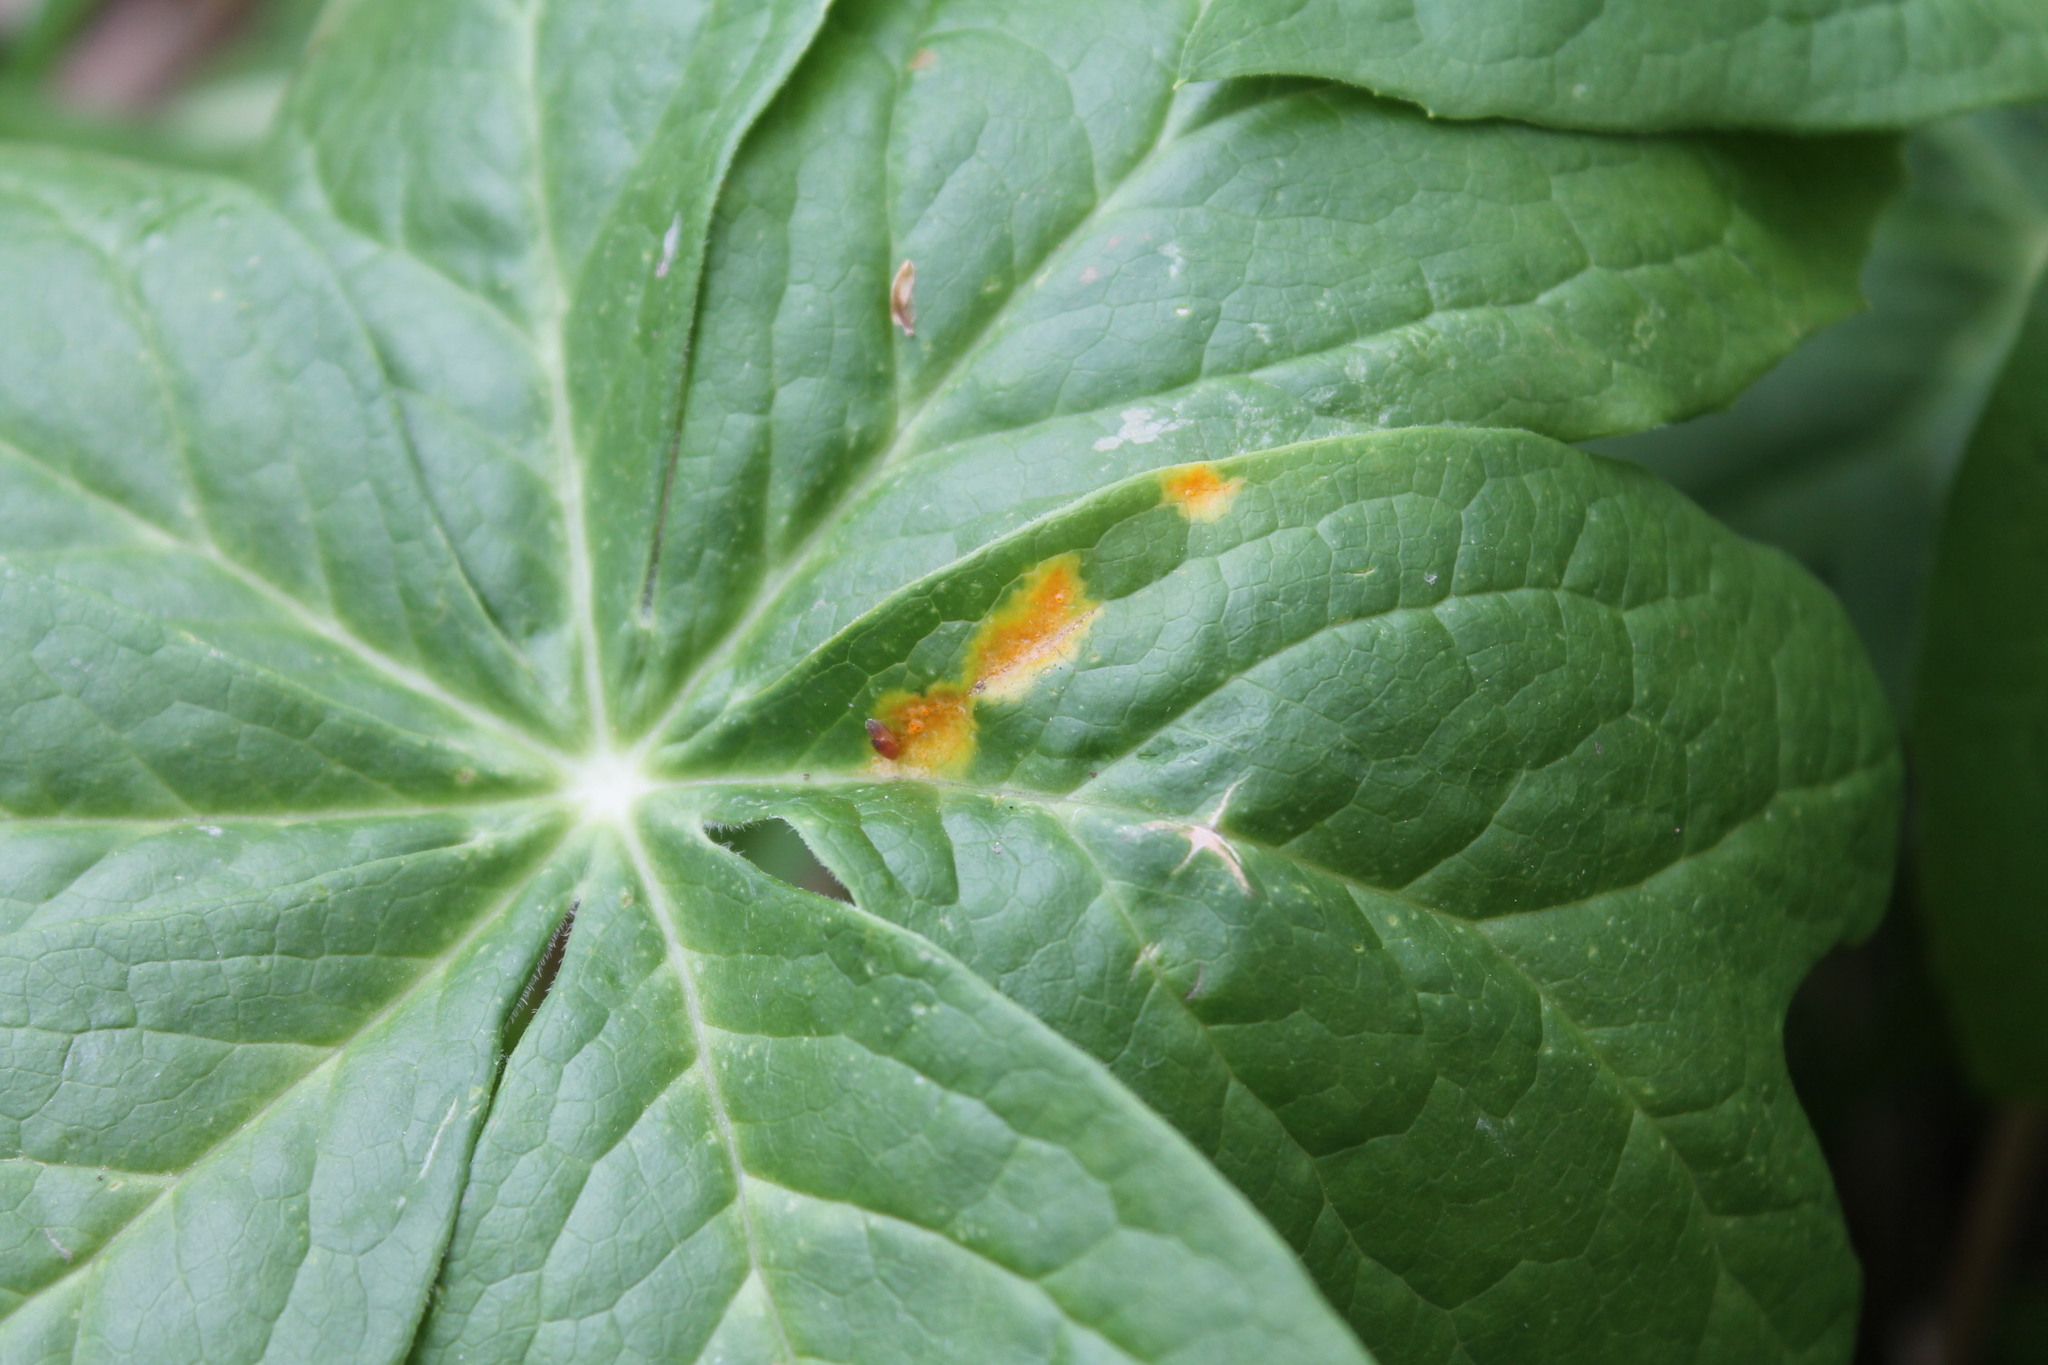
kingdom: Fungi
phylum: Basidiomycota
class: Pucciniomycetes
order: Pucciniales
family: Pucciniaceae
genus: Puccinia
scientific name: Puccinia podophylli
